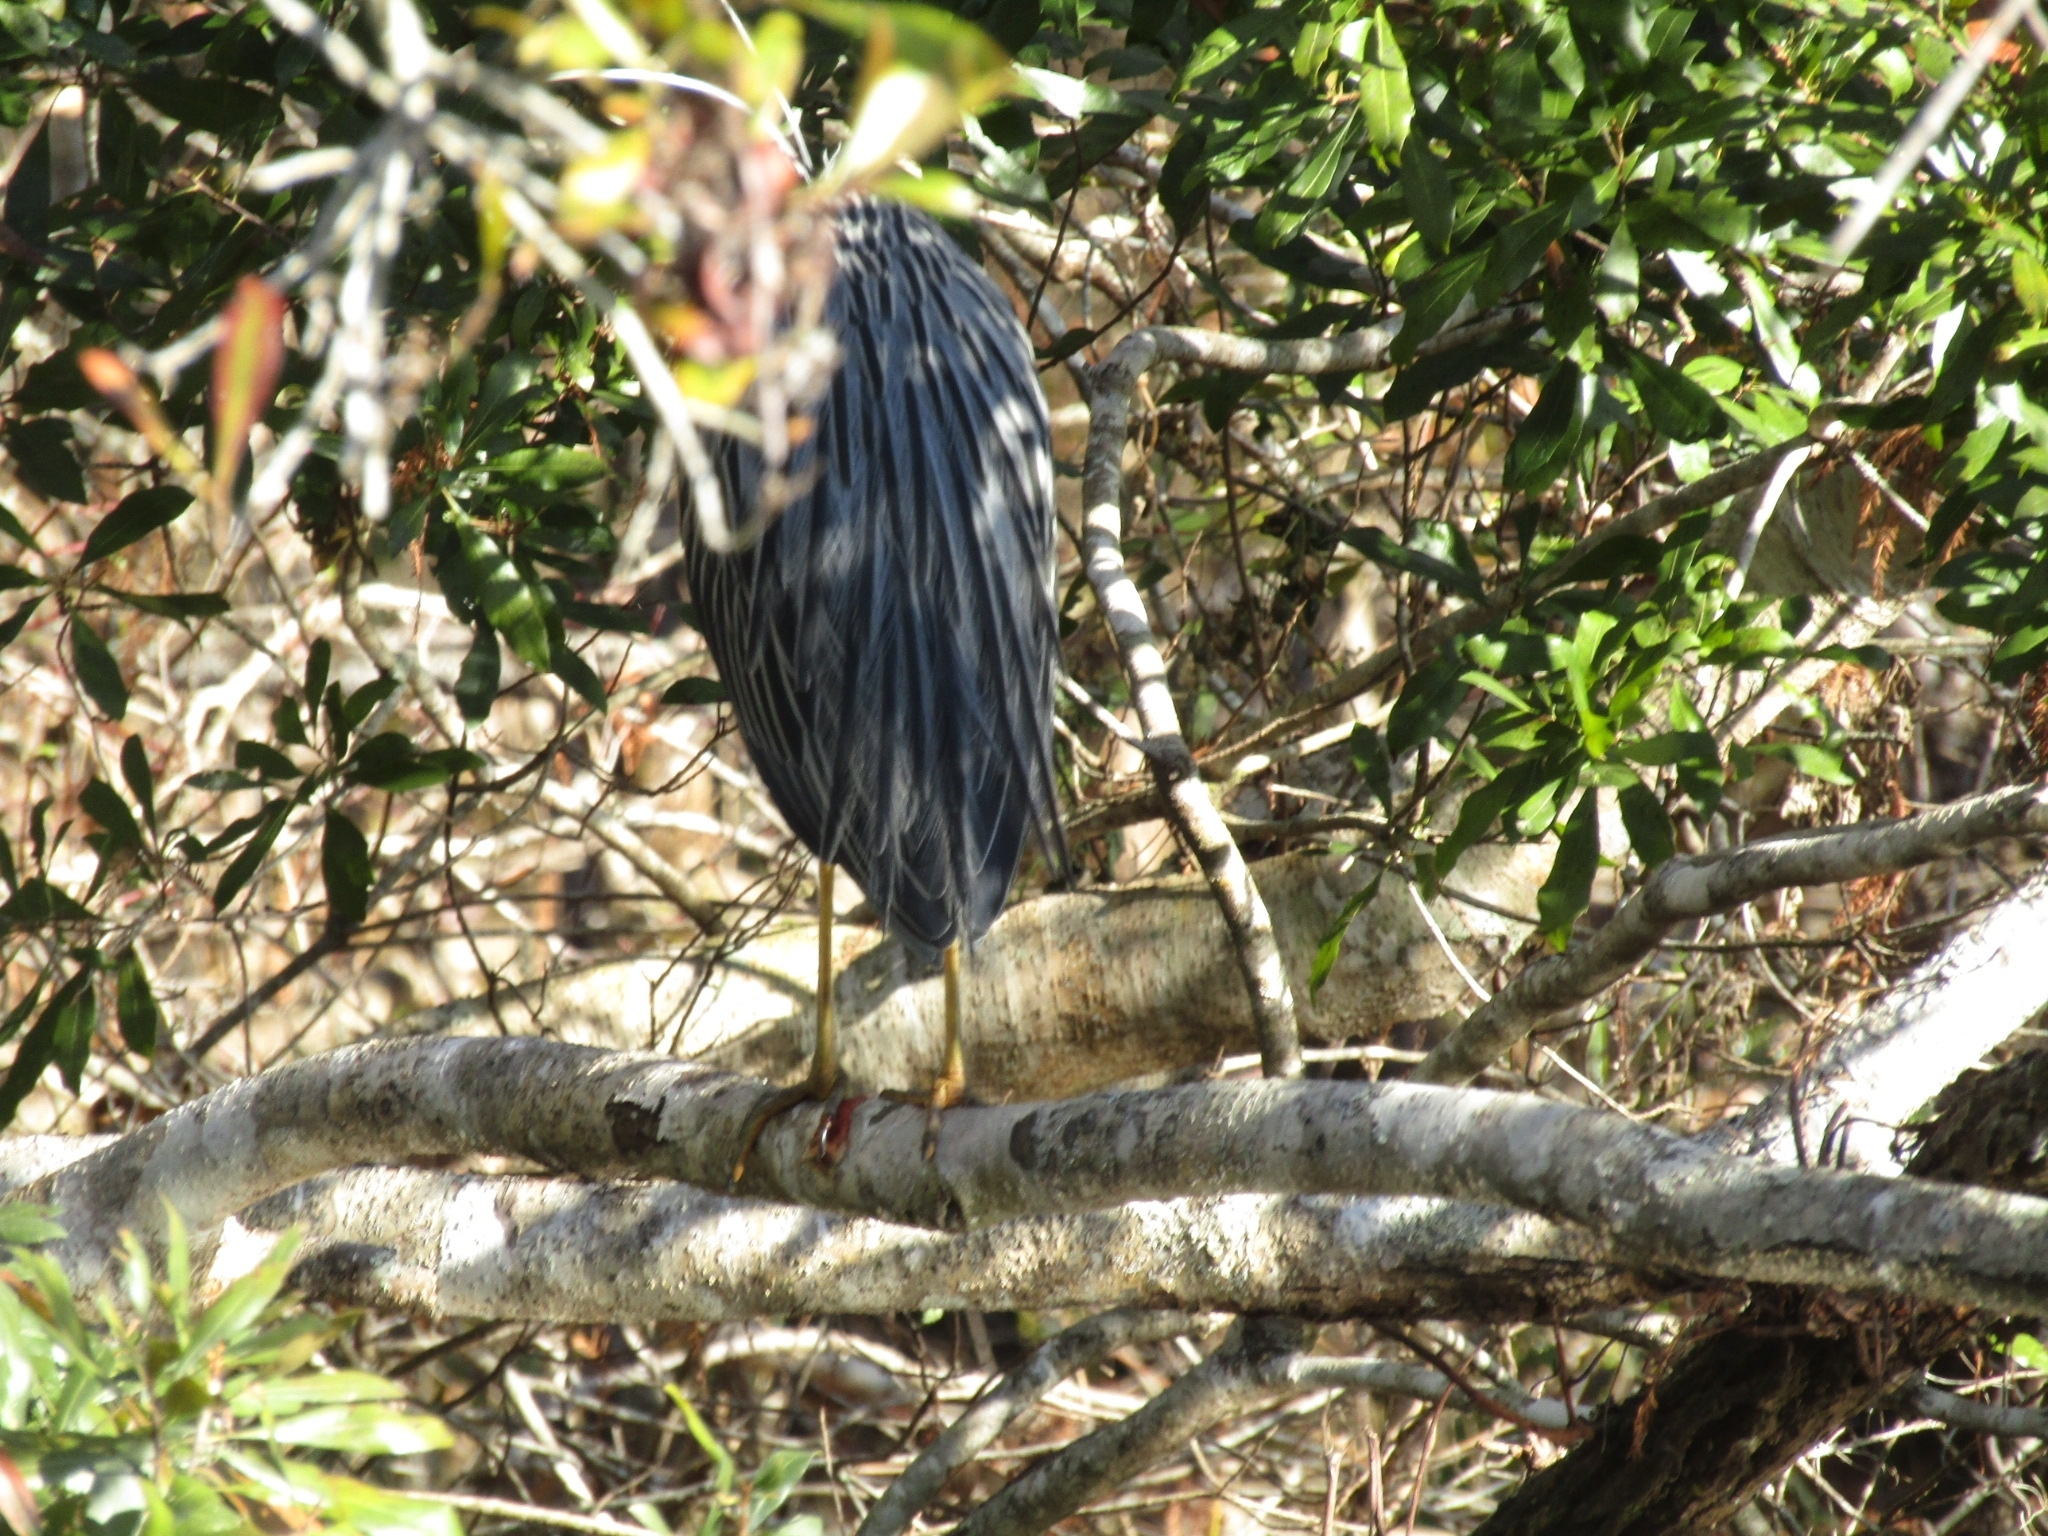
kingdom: Animalia
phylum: Chordata
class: Aves
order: Pelecaniformes
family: Ardeidae
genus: Nyctanassa
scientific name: Nyctanassa violacea
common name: Yellow-crowned night heron
